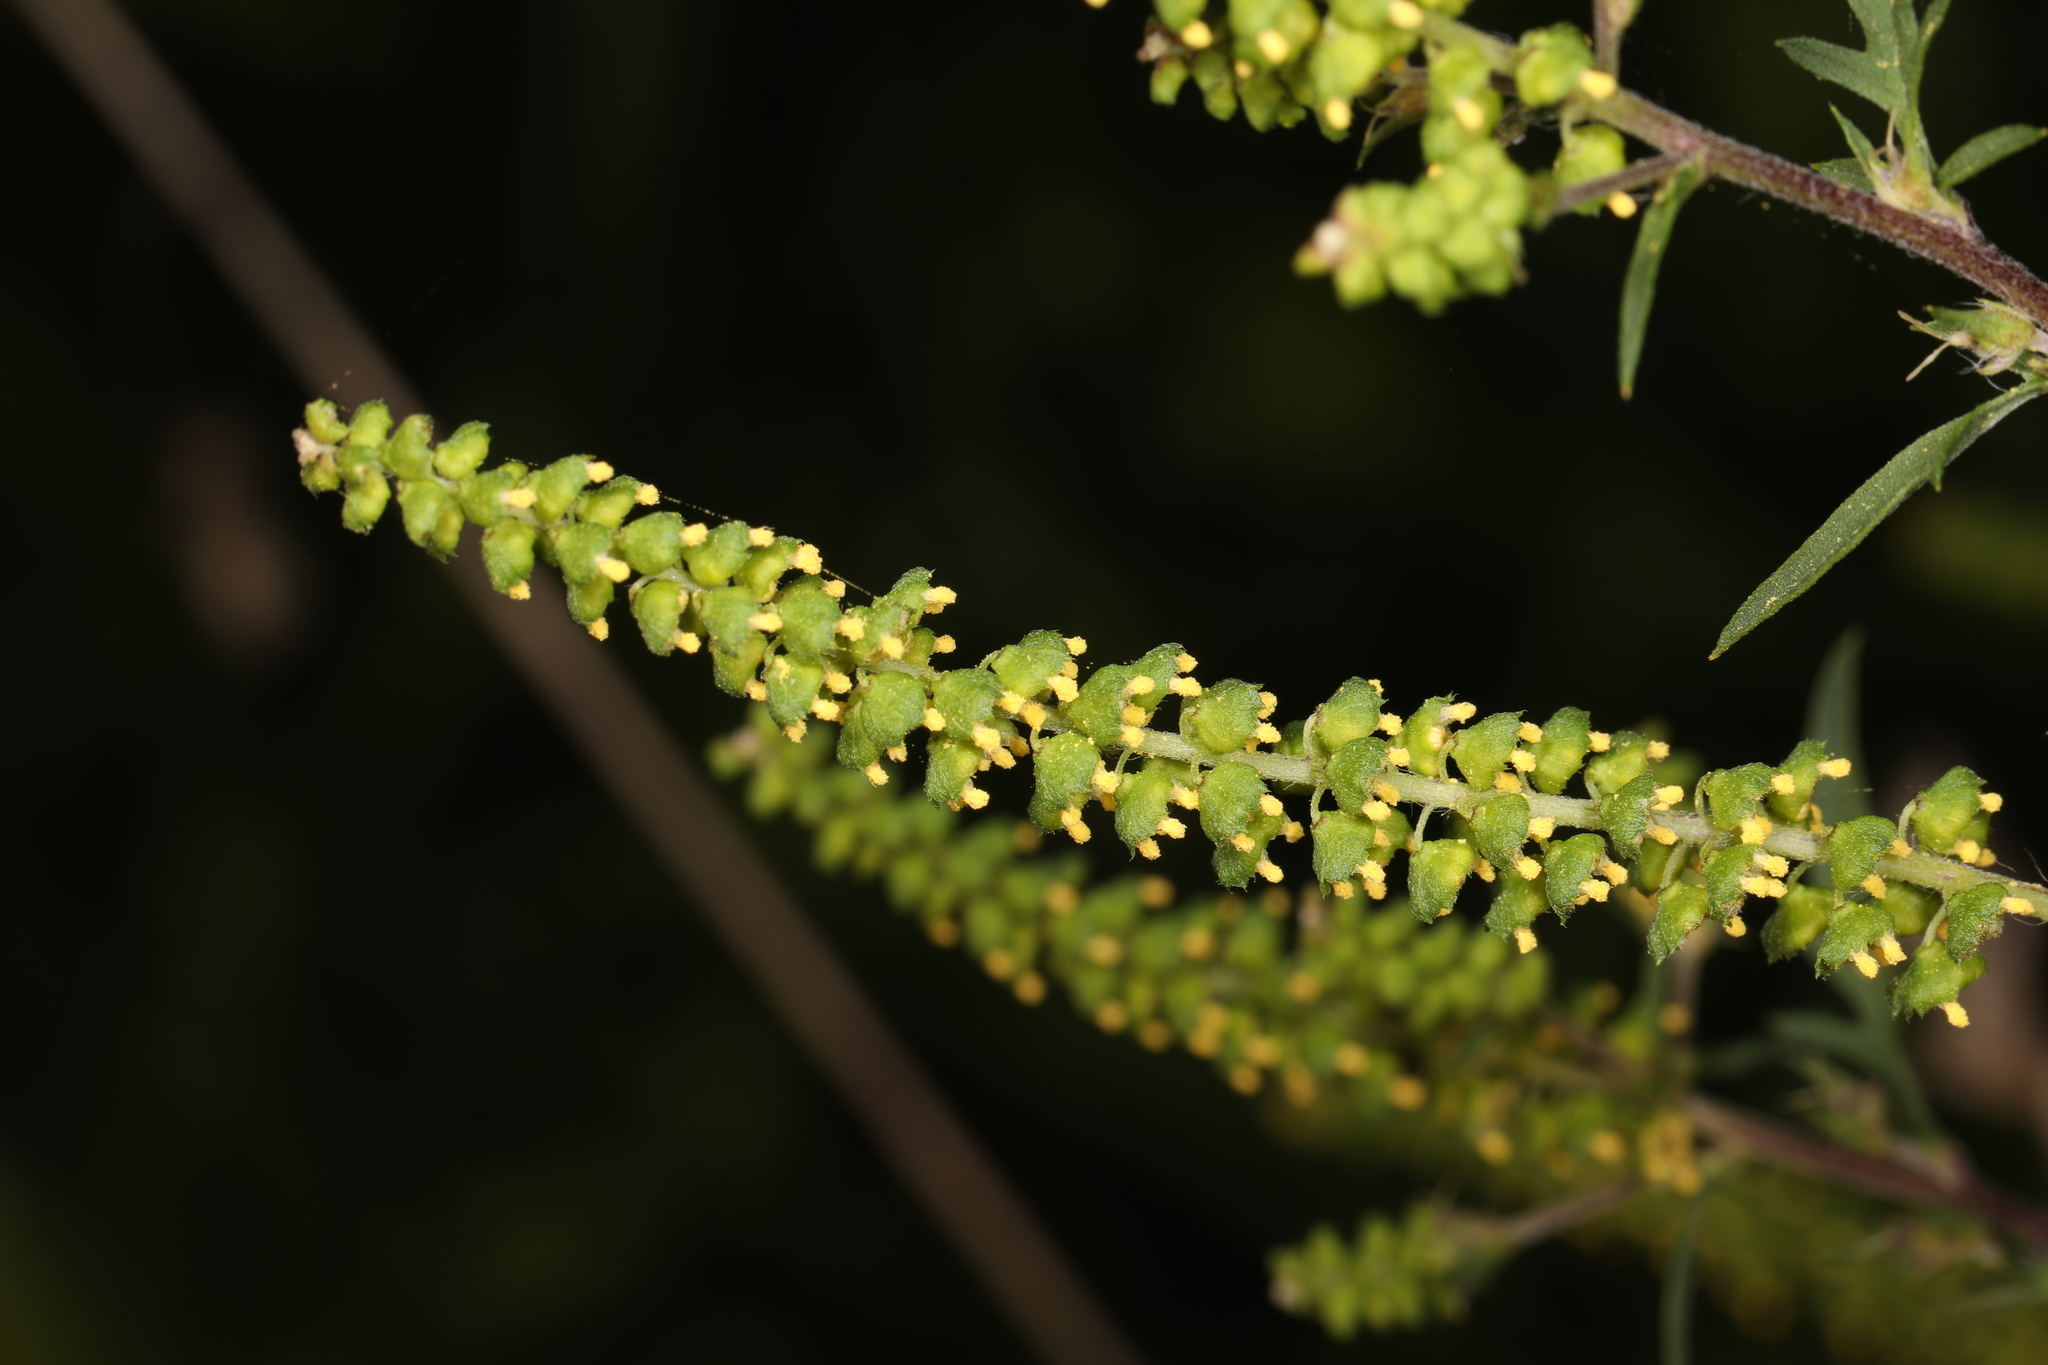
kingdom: Plantae
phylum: Tracheophyta
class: Magnoliopsida
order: Asterales
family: Asteraceae
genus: Ambrosia
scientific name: Ambrosia artemisiifolia
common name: Annual ragweed
